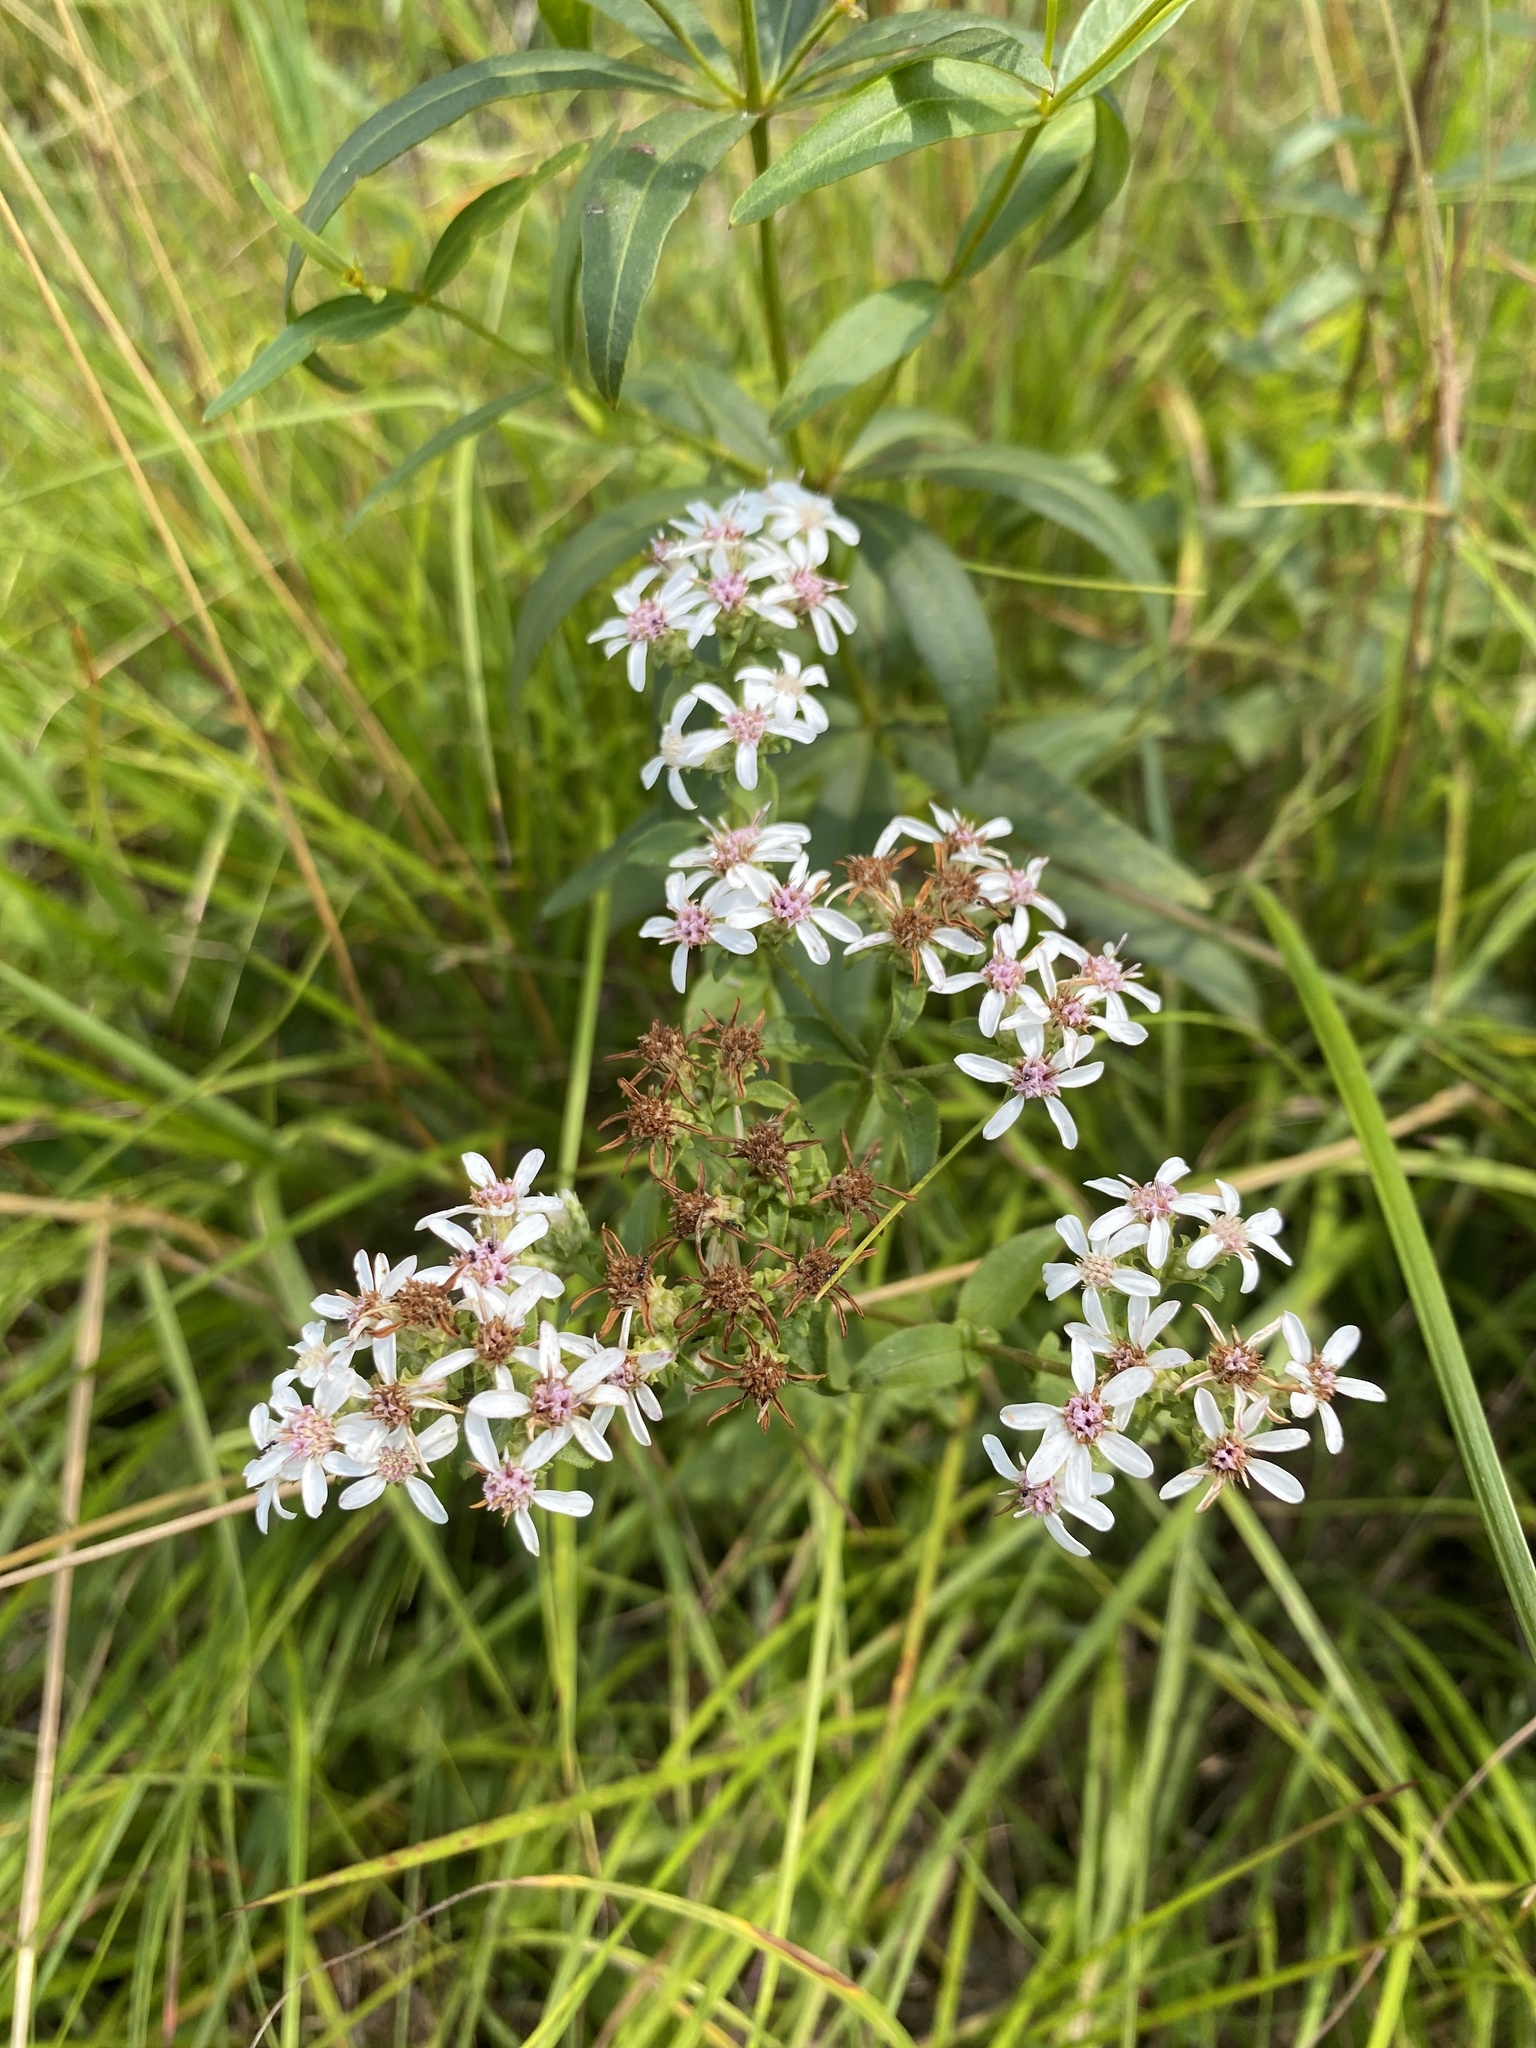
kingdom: Plantae
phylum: Tracheophyta
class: Magnoliopsida
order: Asterales
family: Asteraceae
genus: Sericocarpus
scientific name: Sericocarpus asteroides
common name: Toothed white-top aster
